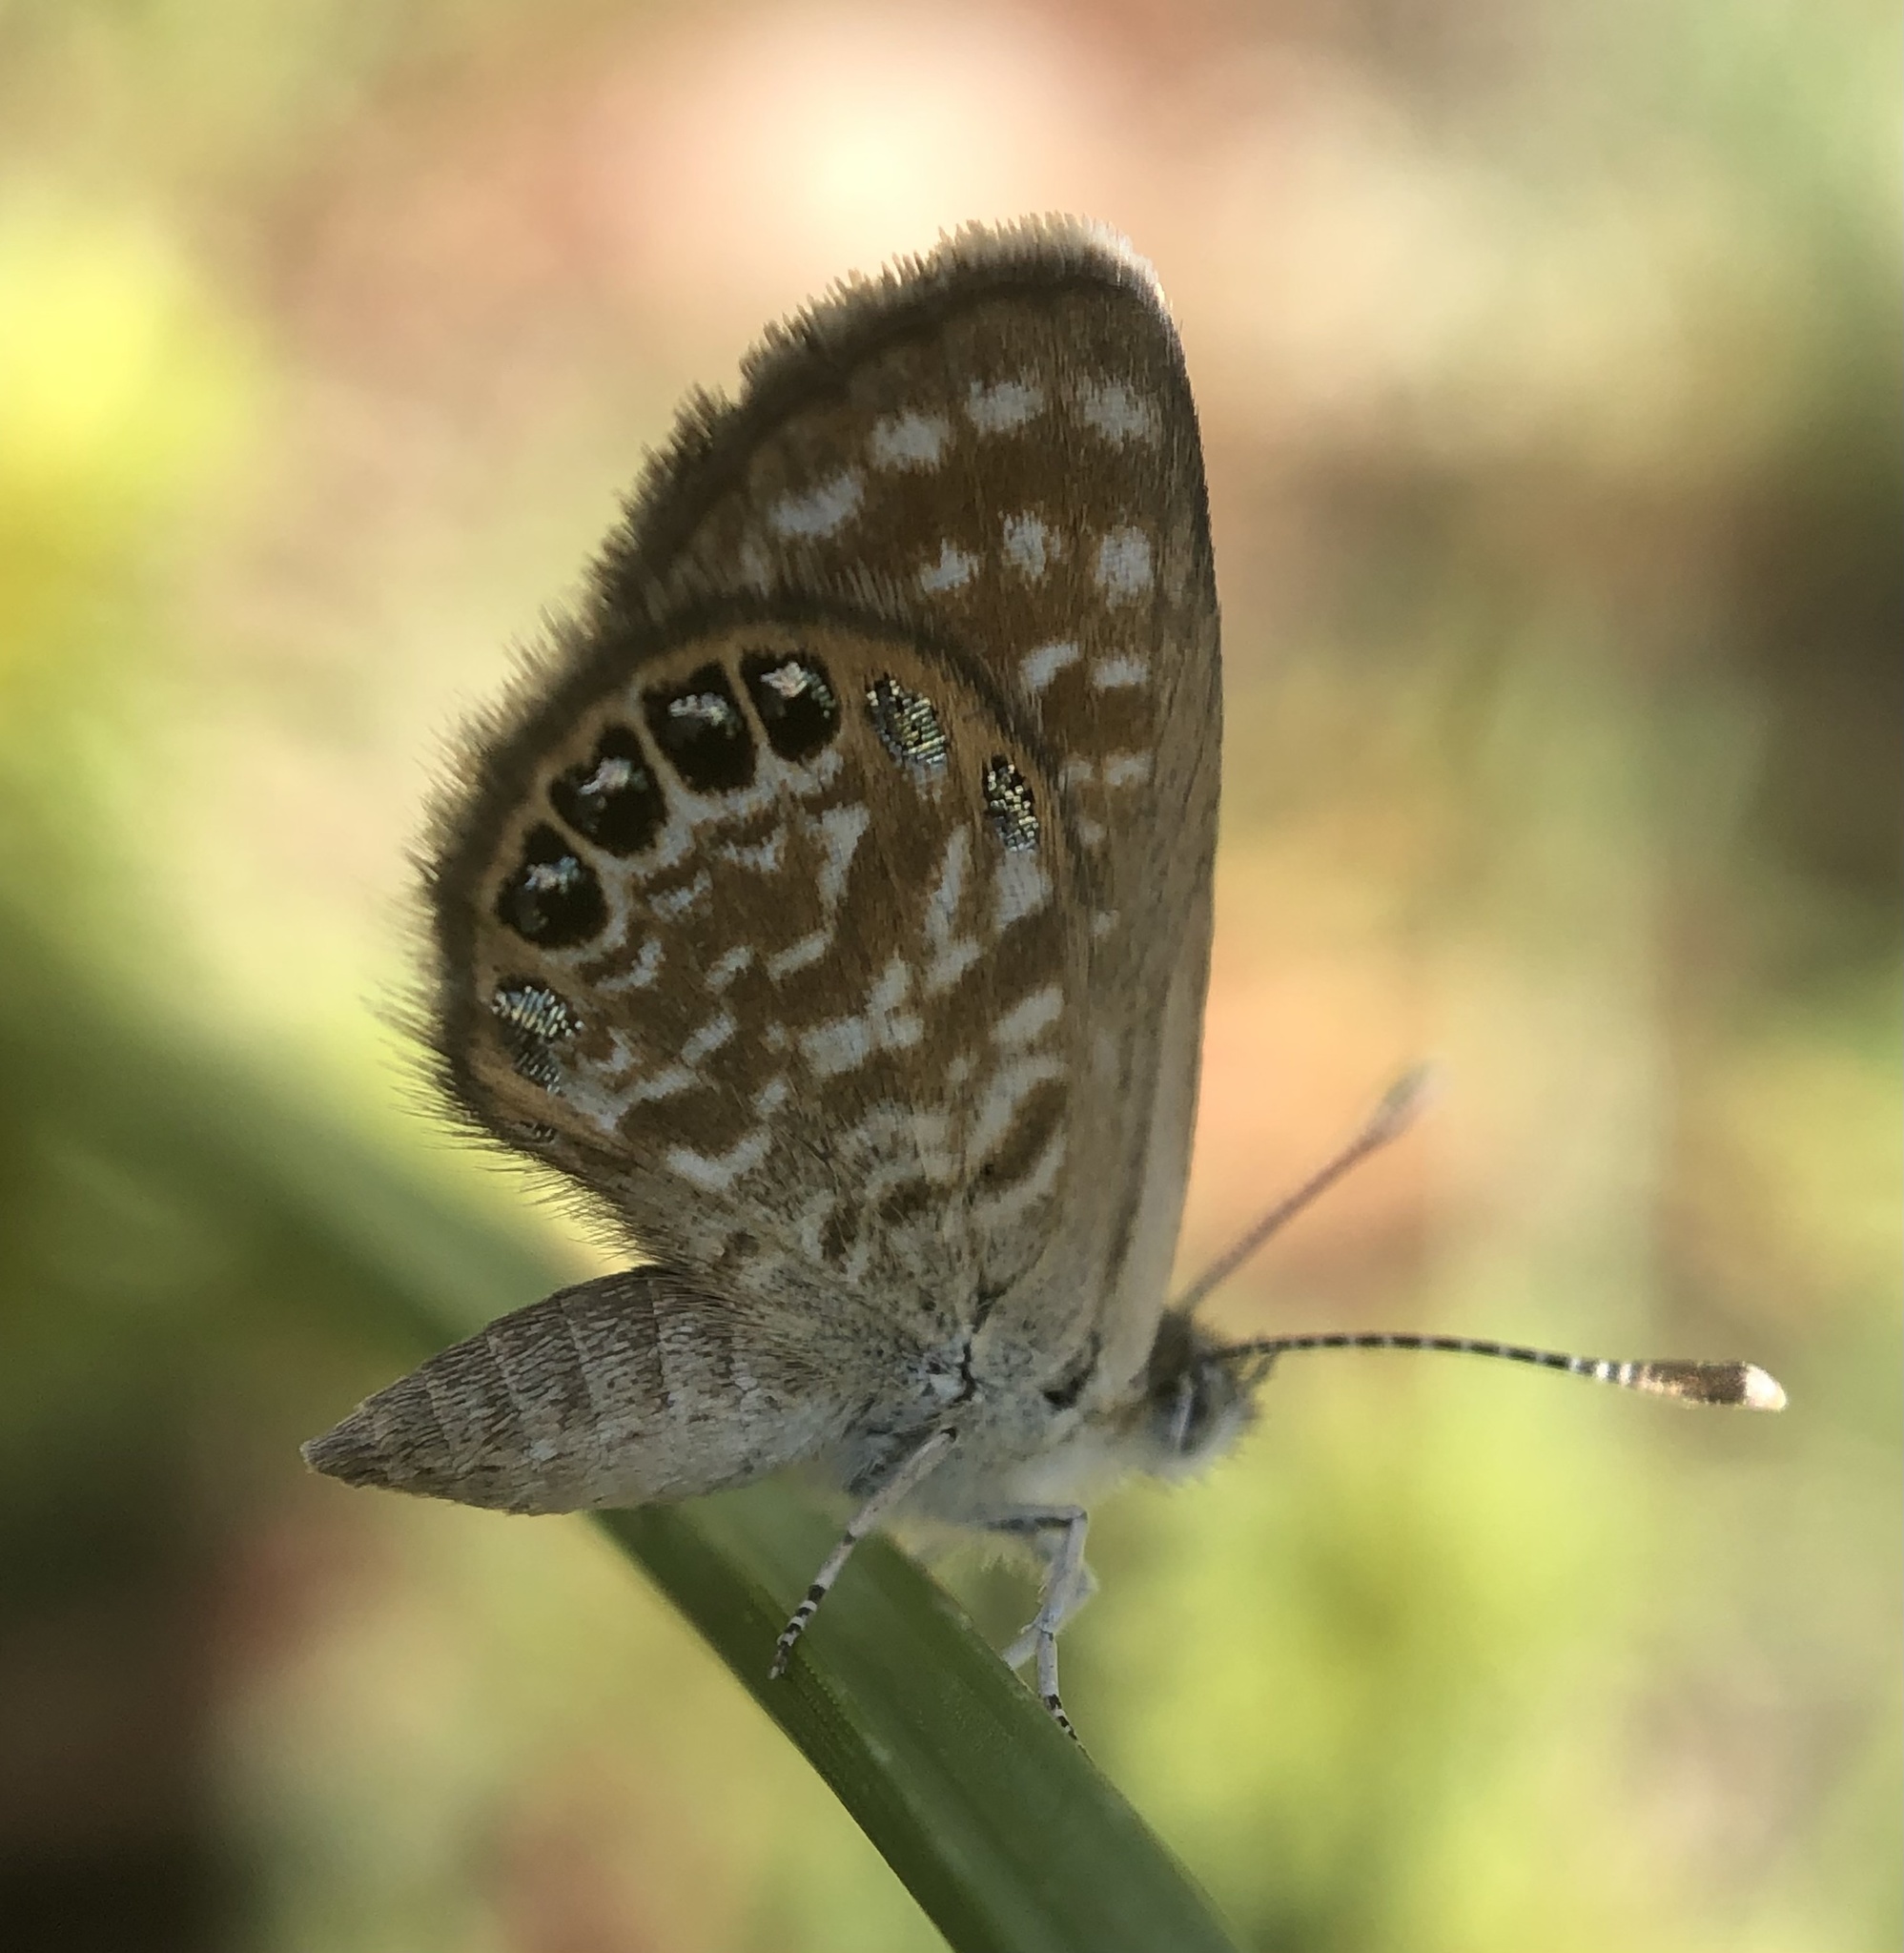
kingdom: Animalia
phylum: Arthropoda
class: Insecta
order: Lepidoptera
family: Lycaenidae
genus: Brephidium
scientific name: Brephidium exilis
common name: Pygmy blue
